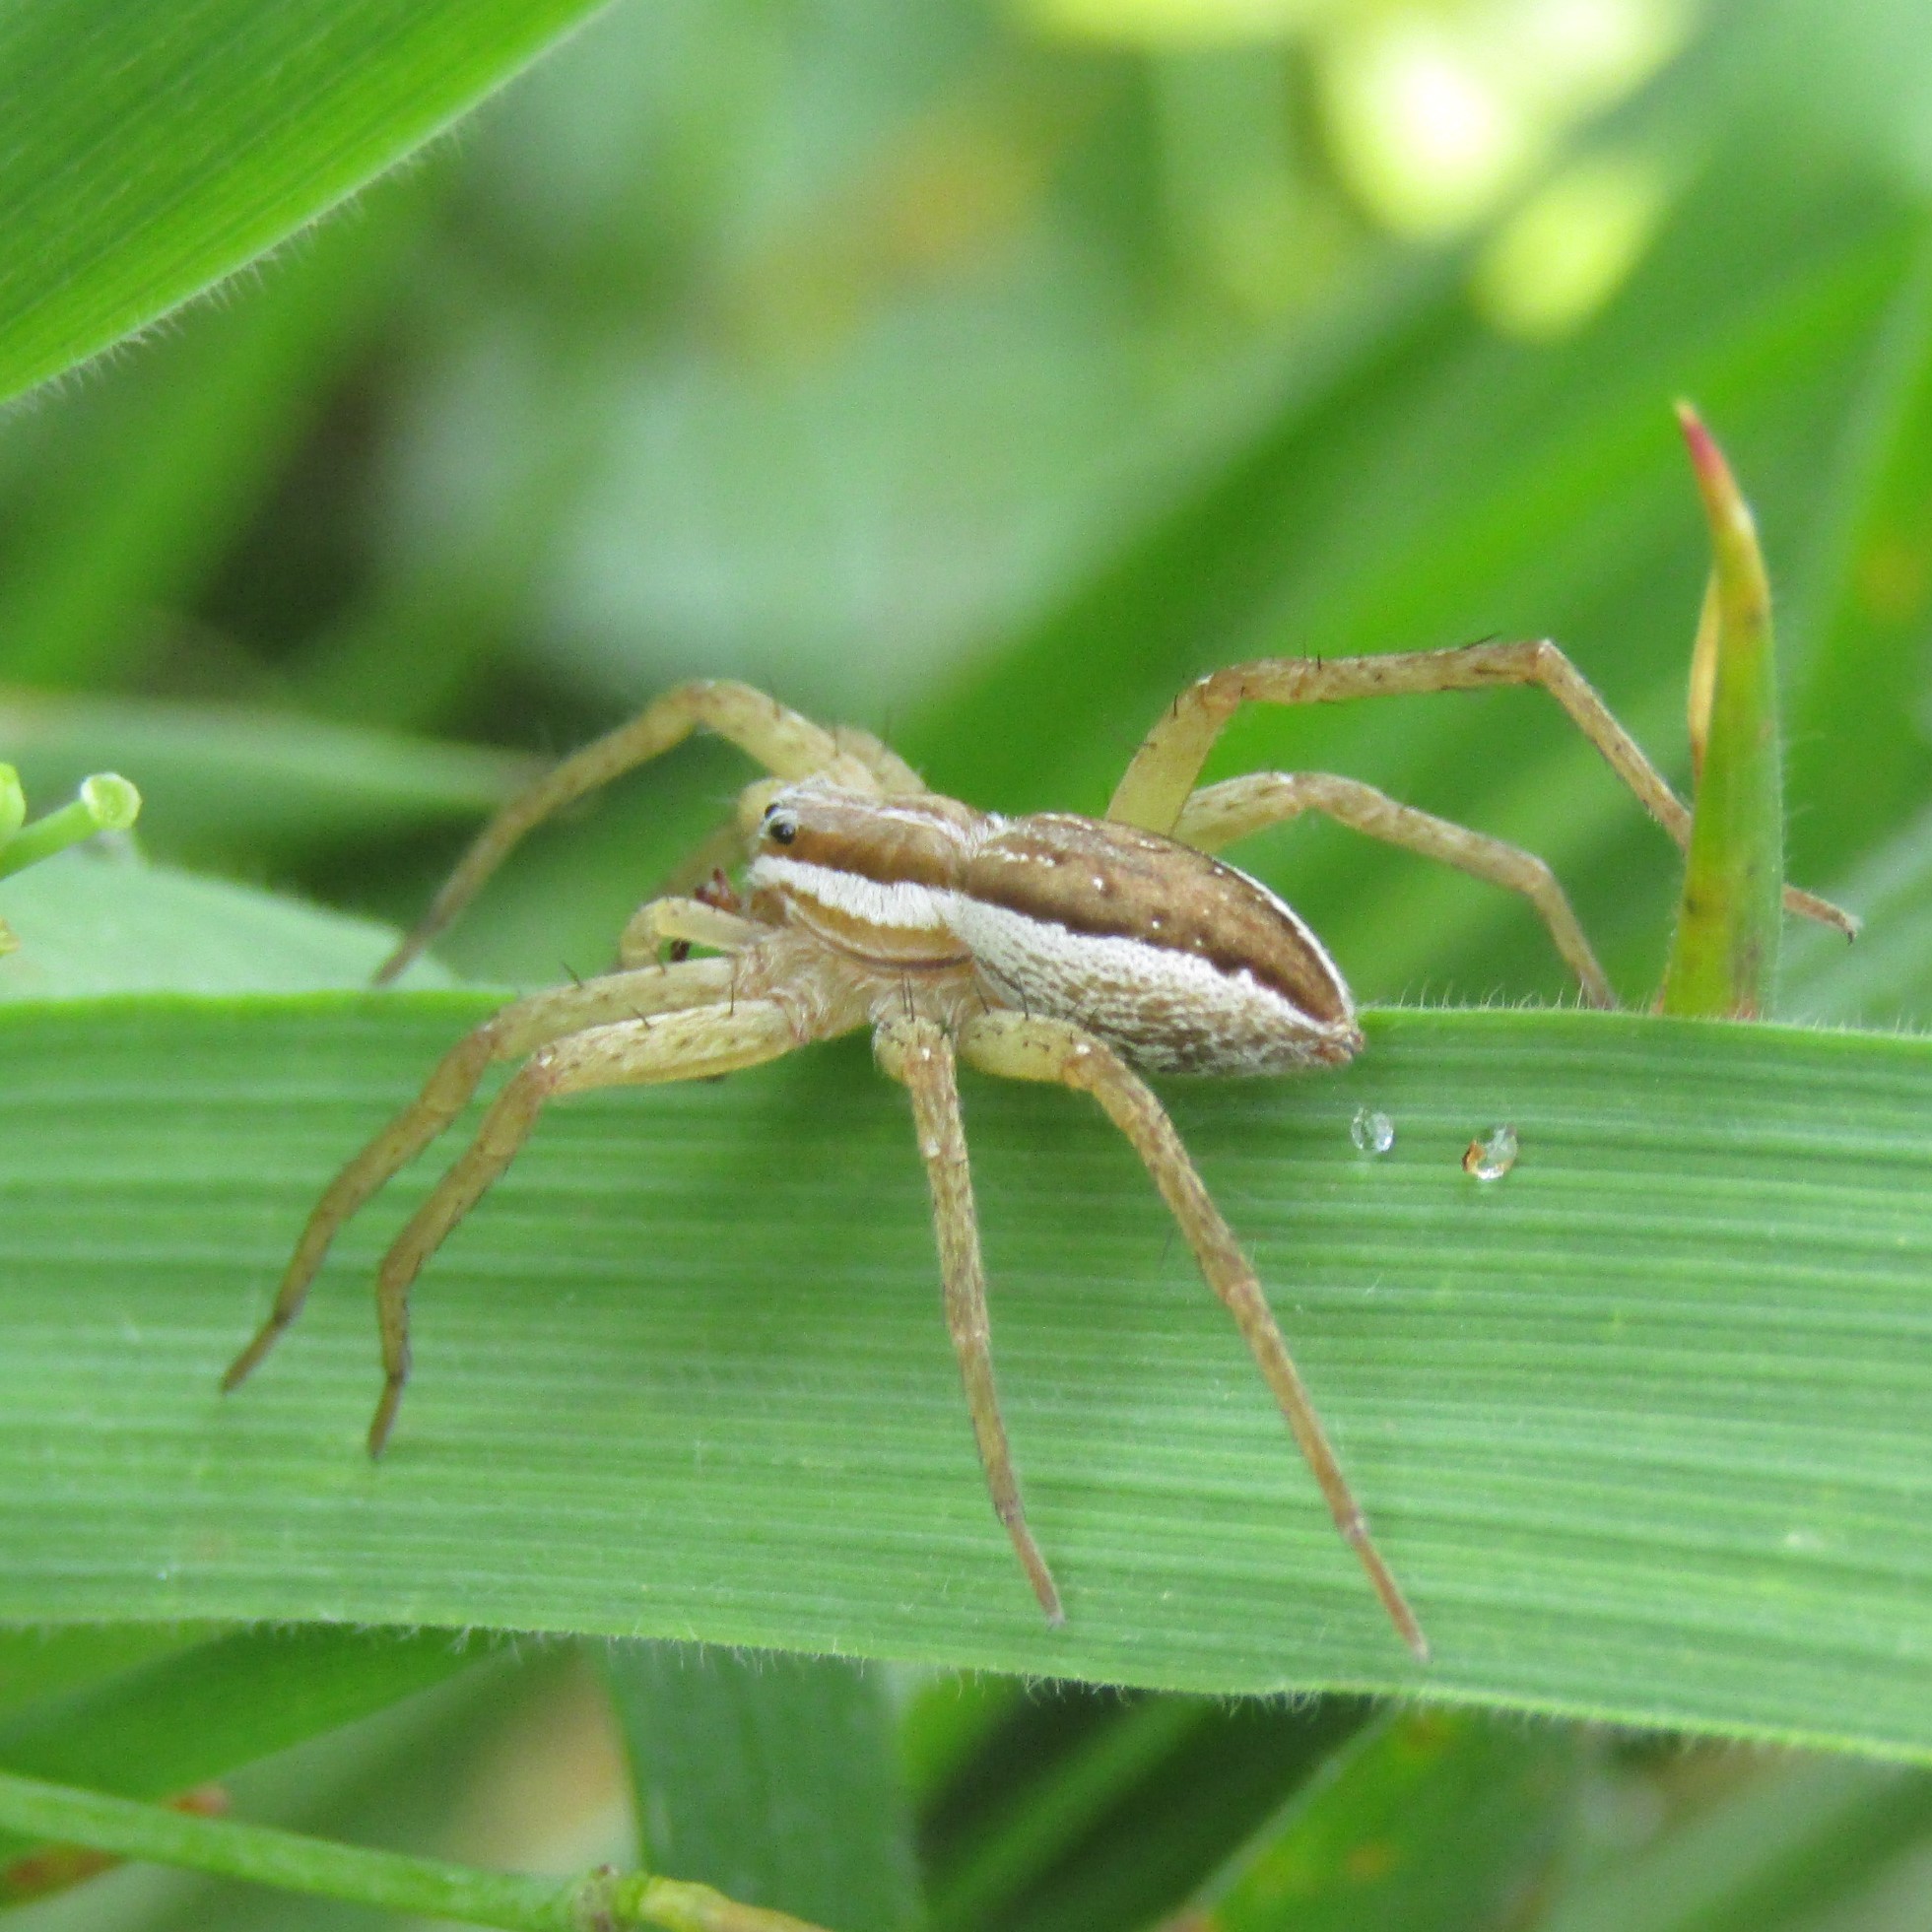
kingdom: Animalia
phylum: Arthropoda
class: Arachnida
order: Araneae
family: Pisauridae
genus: Dolomedes
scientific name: Dolomedes minor
